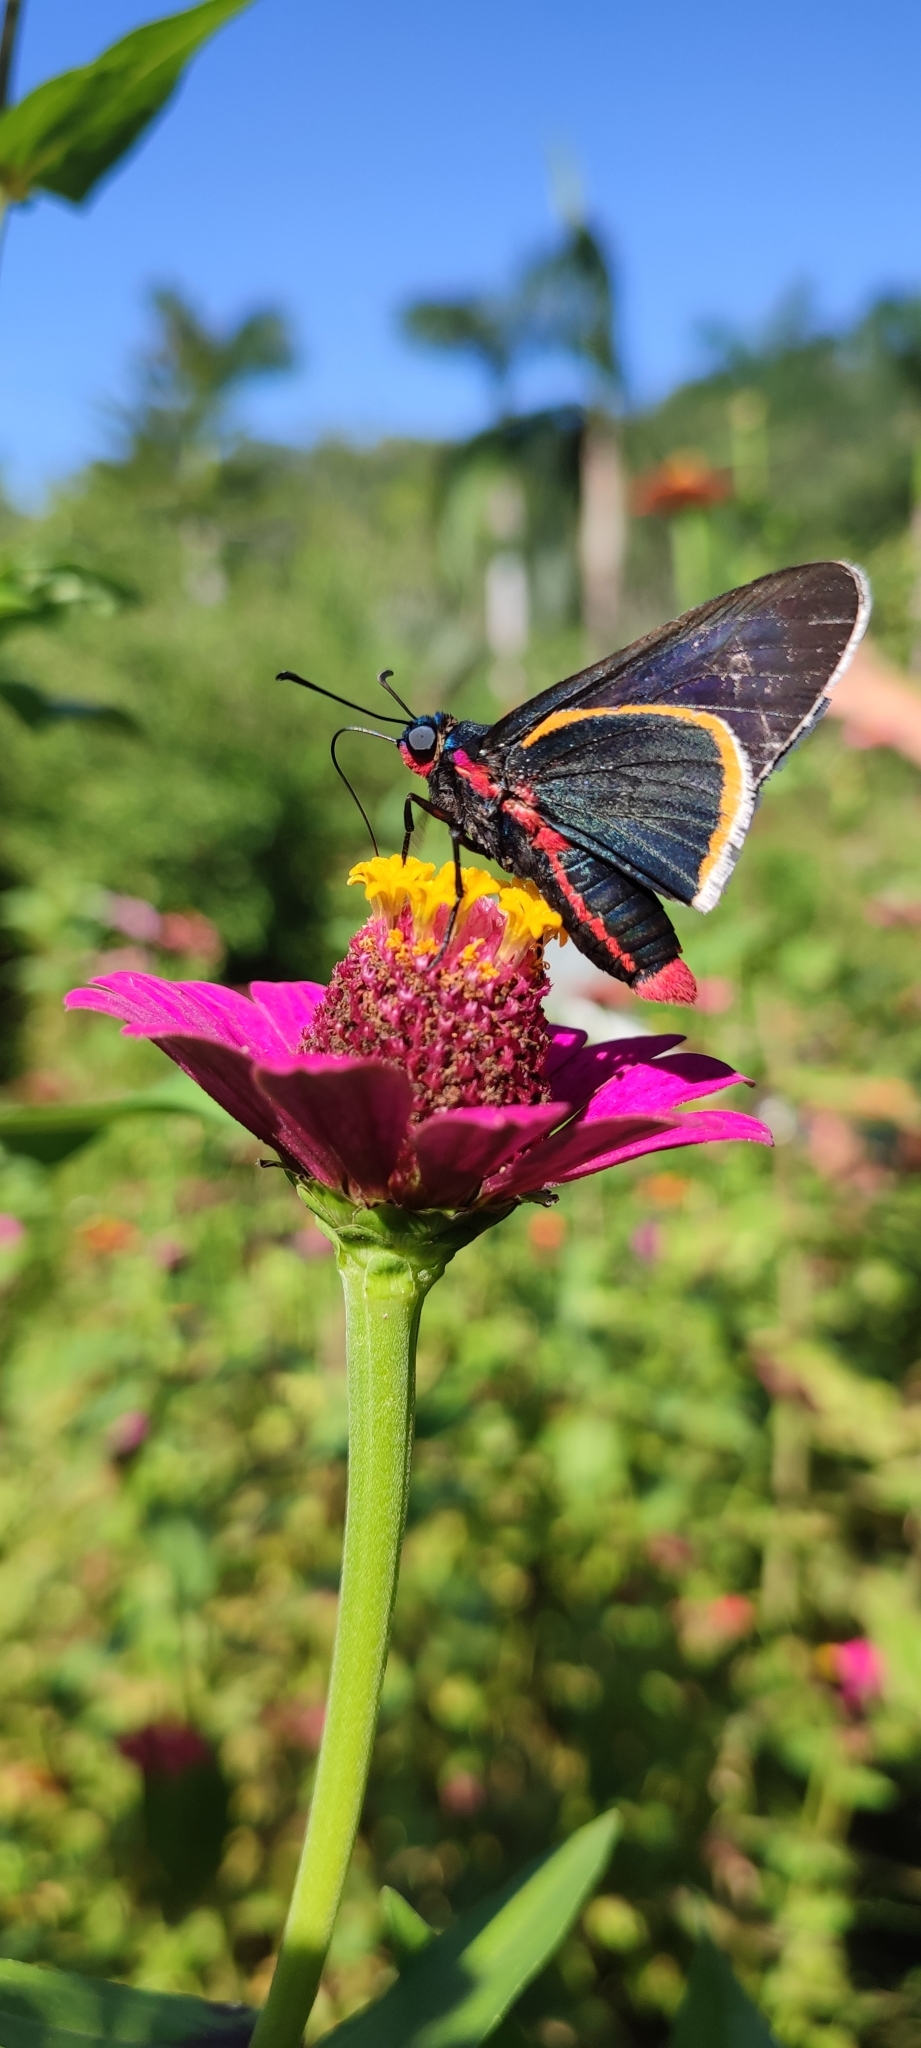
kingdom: Animalia
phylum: Arthropoda
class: Insecta
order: Lepidoptera
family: Hesperiidae
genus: Mysoria
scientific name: Mysoria amra
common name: Blue-collared firetip
